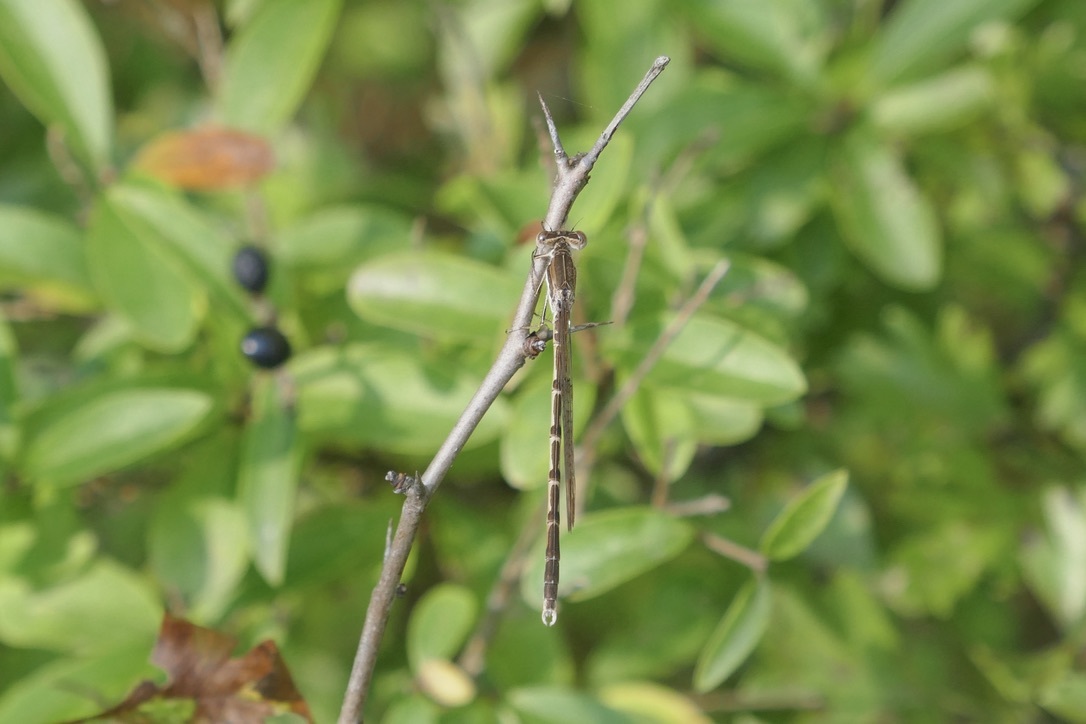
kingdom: Animalia
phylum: Arthropoda
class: Insecta
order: Odonata
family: Lestidae
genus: Sympecma
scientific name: Sympecma fusca
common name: Common winter damsel
